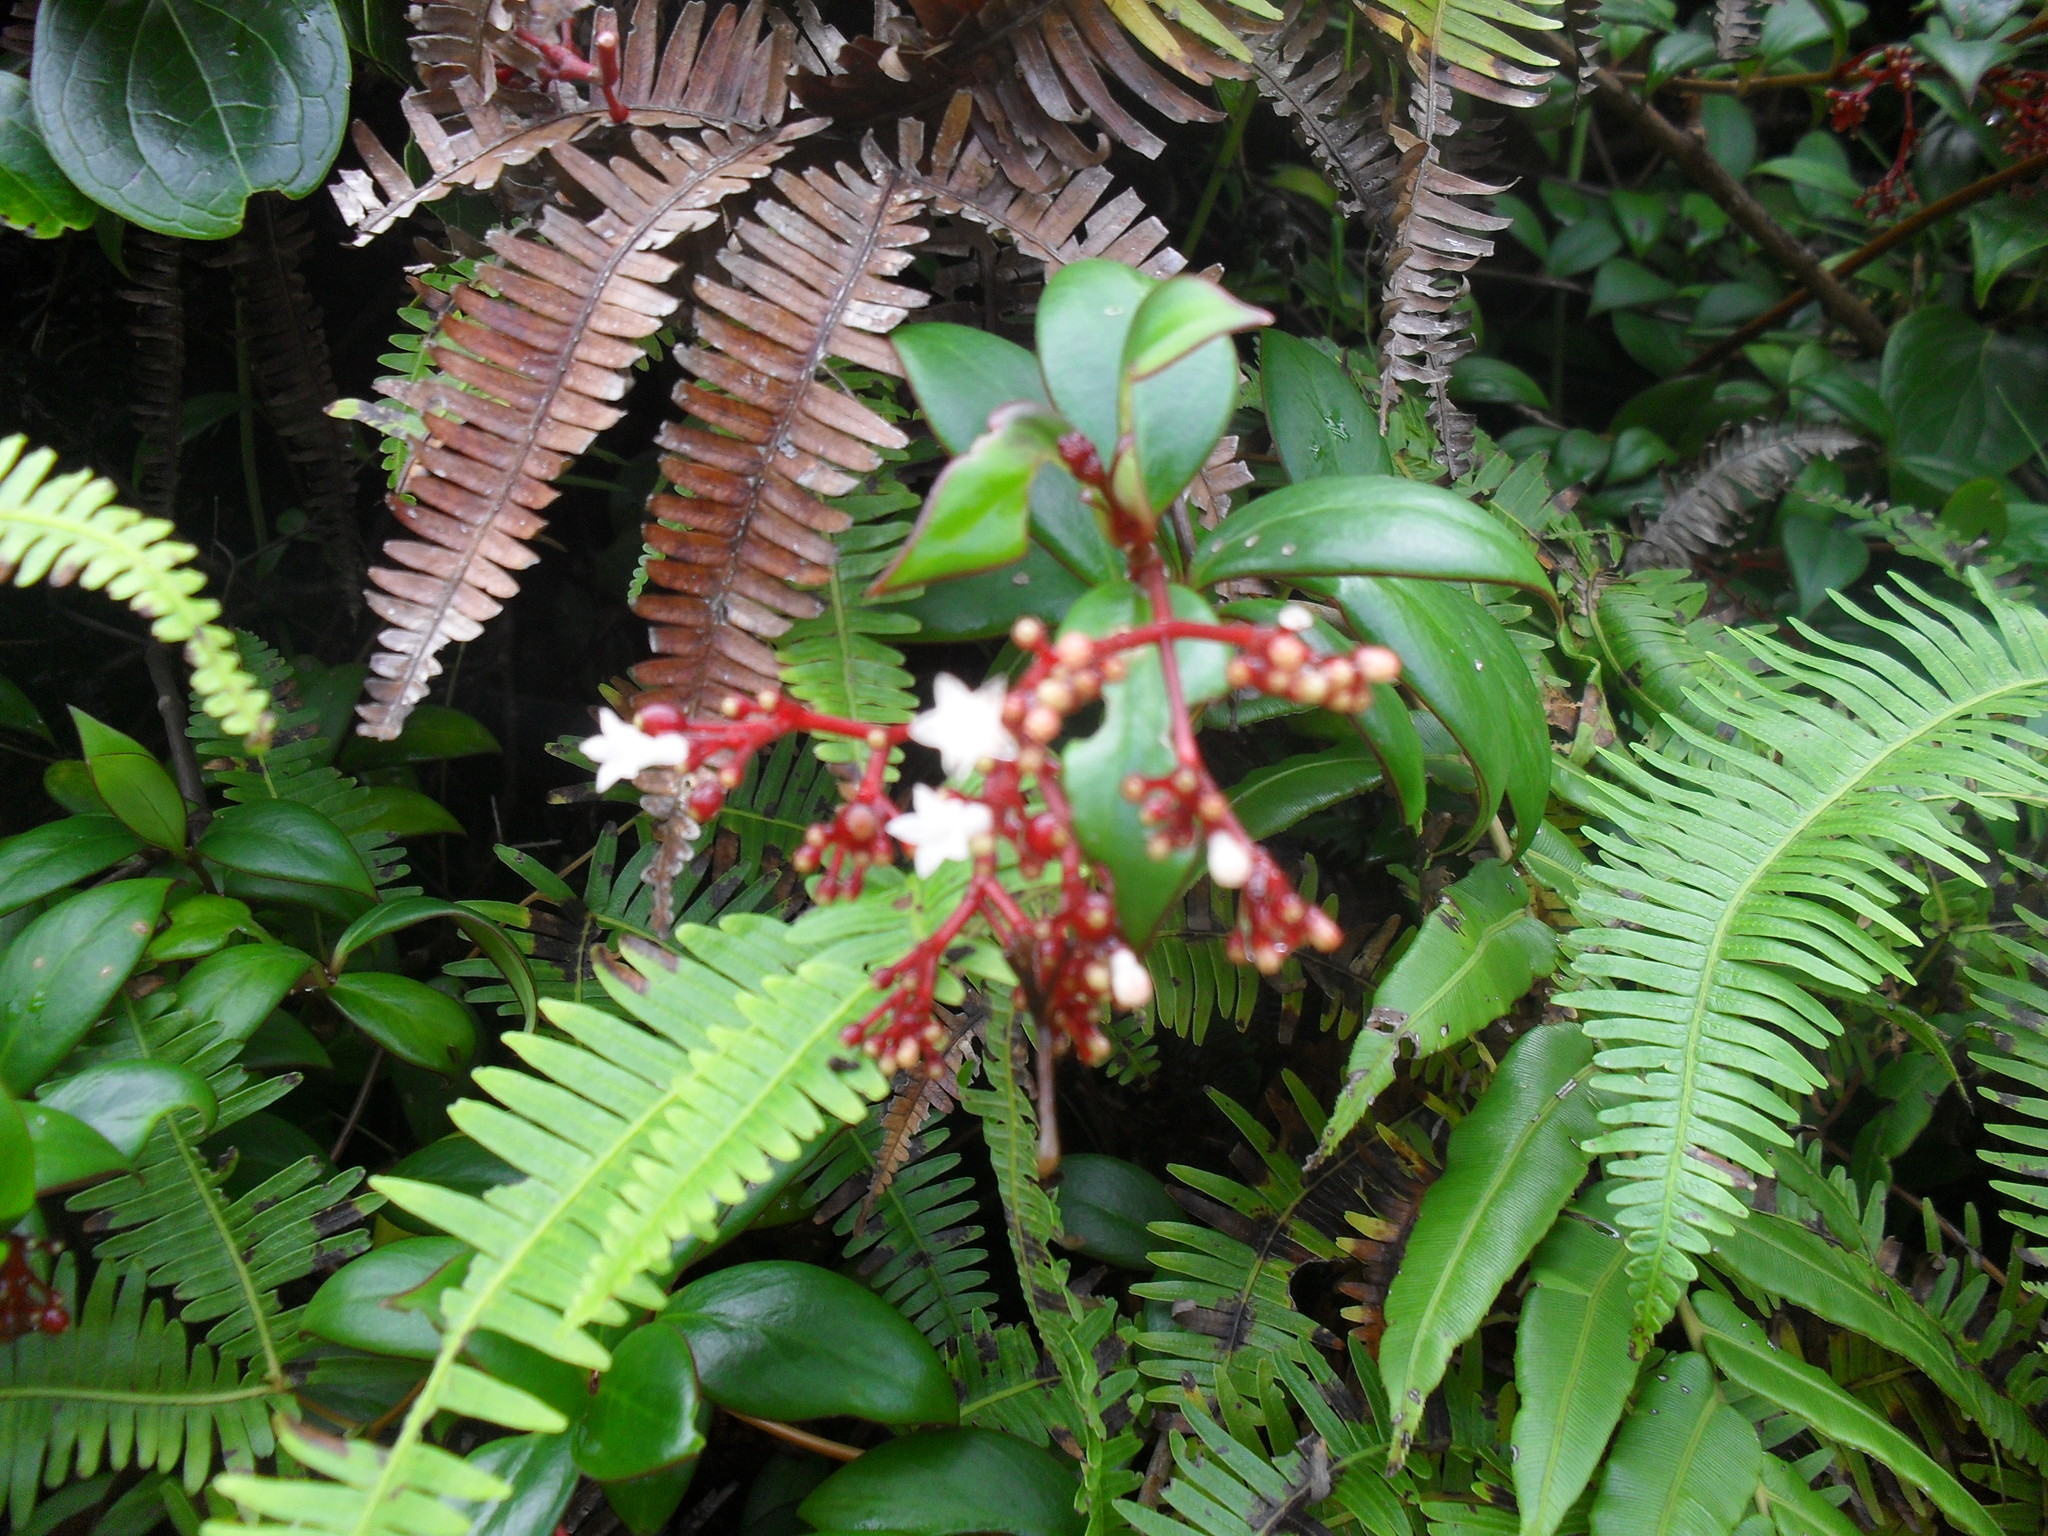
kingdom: Plantae
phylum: Tracheophyta
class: Magnoliopsida
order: Gentianales
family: Rubiaceae
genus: Notopleura
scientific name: Notopleura parasitica
